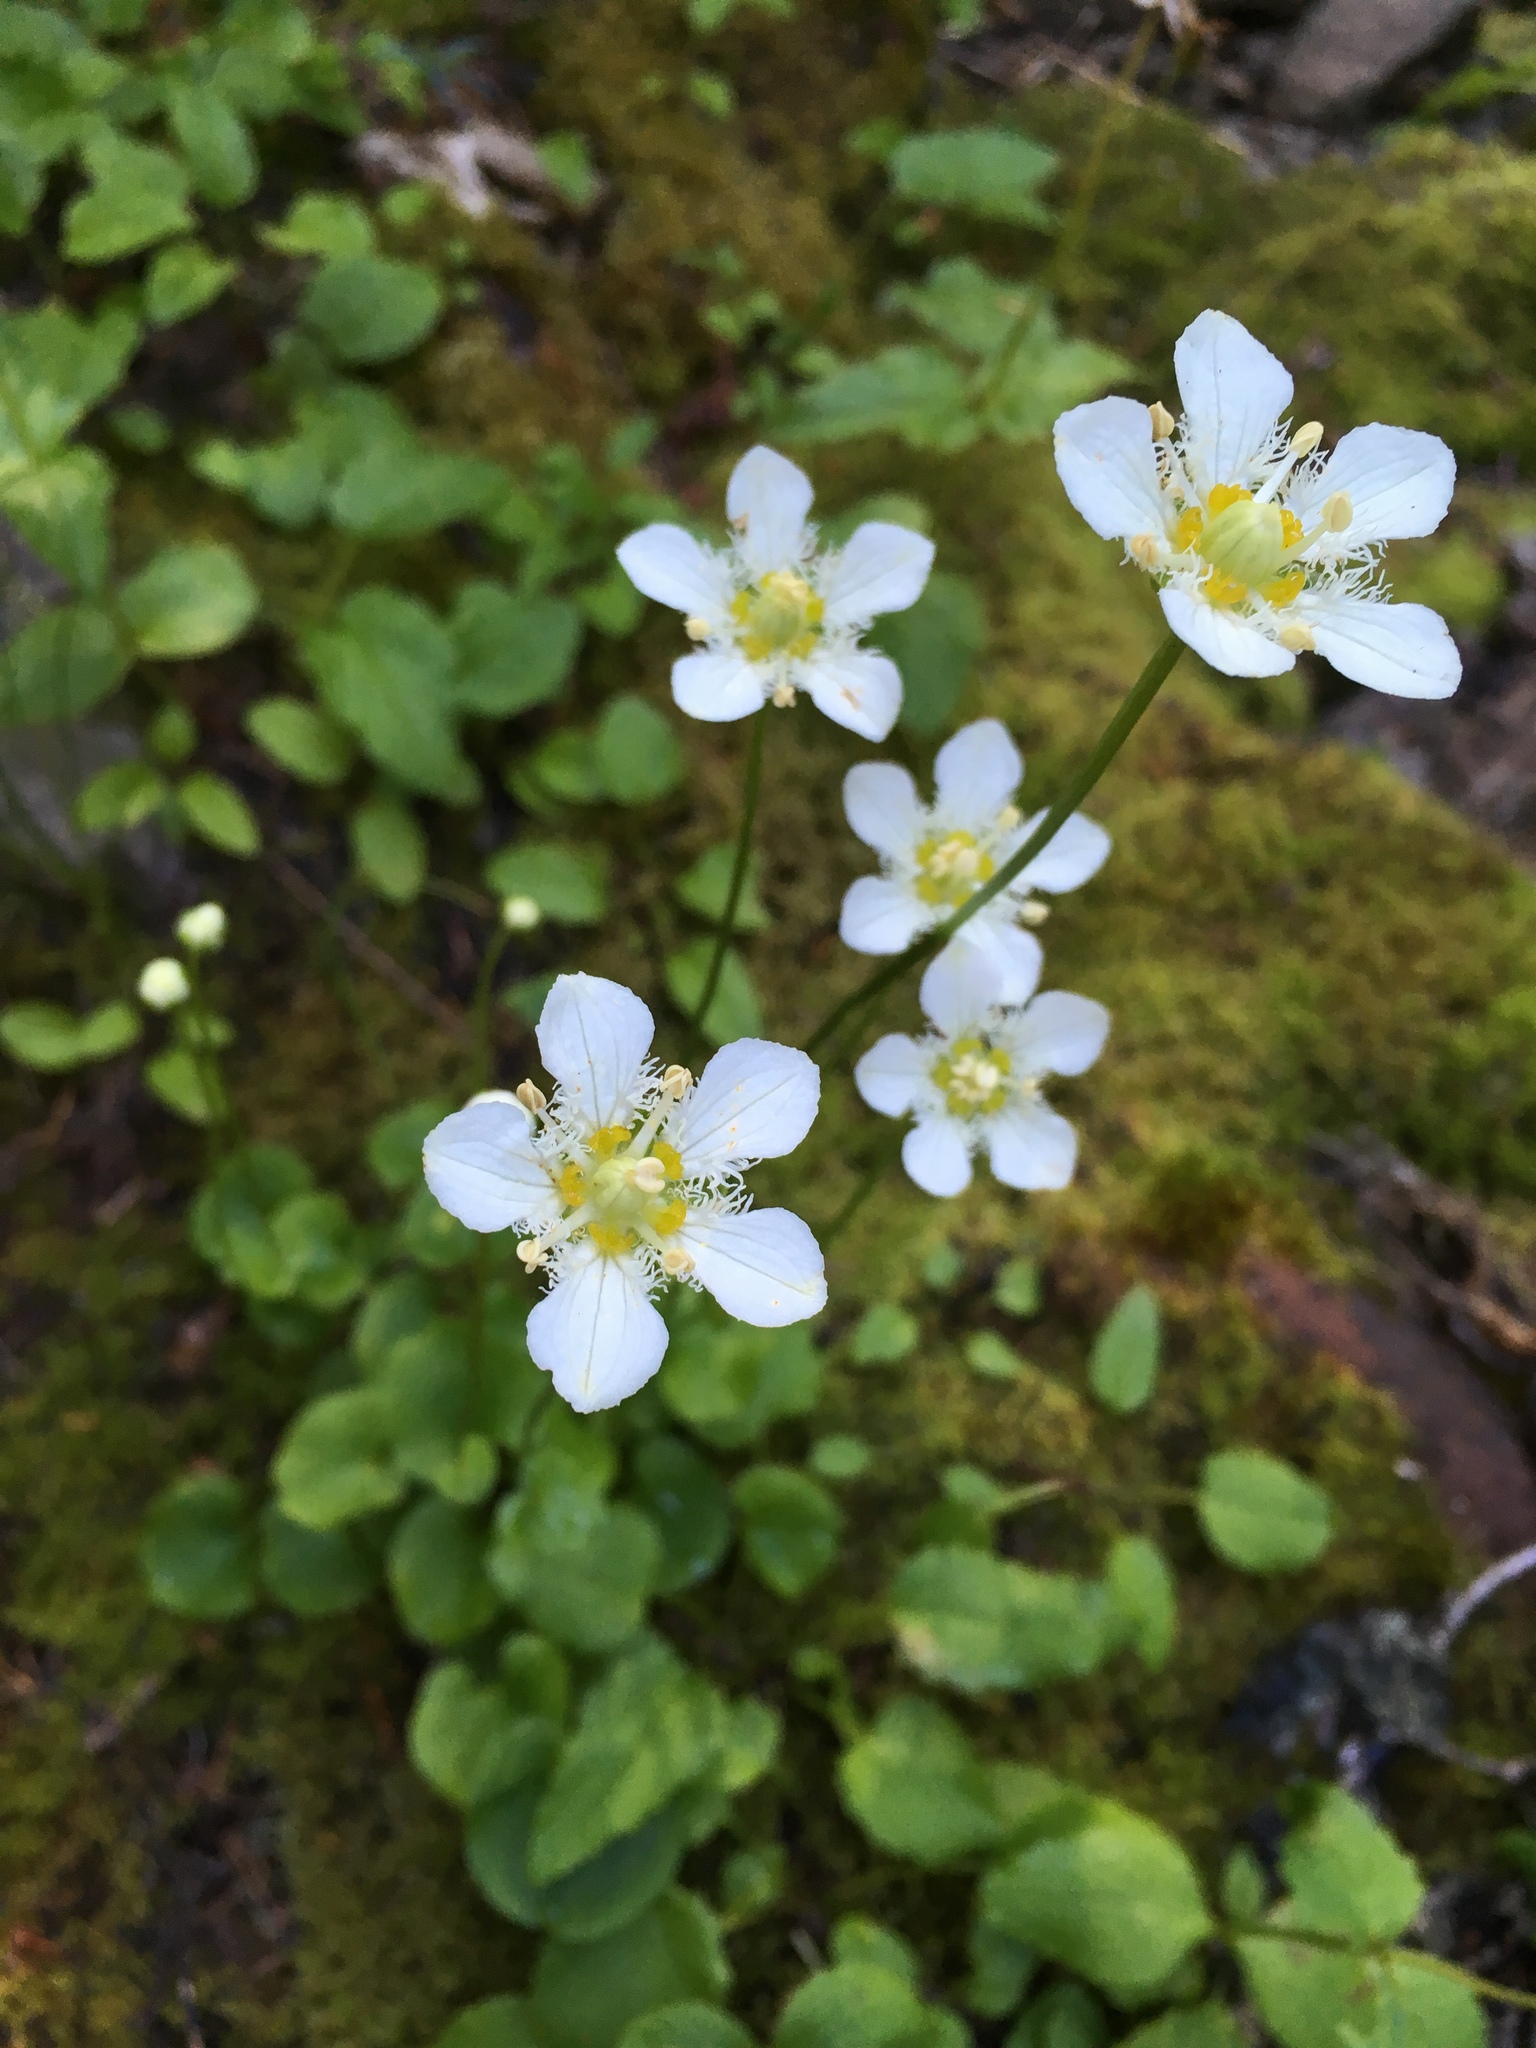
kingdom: Plantae
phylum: Tracheophyta
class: Magnoliopsida
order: Celastrales
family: Parnassiaceae
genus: Parnassia
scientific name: Parnassia fimbriata
